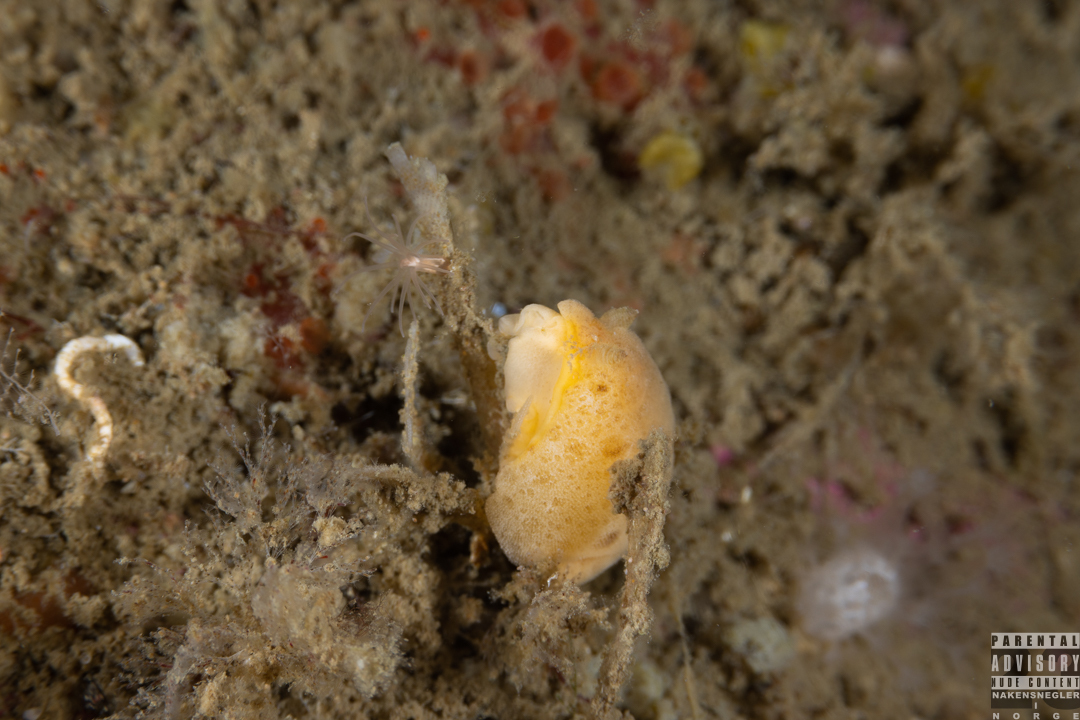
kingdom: Animalia
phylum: Mollusca
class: Gastropoda
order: Nudibranchia
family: Discodorididae
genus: Jorunna
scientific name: Jorunna tomentosa
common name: Grey sea slug
